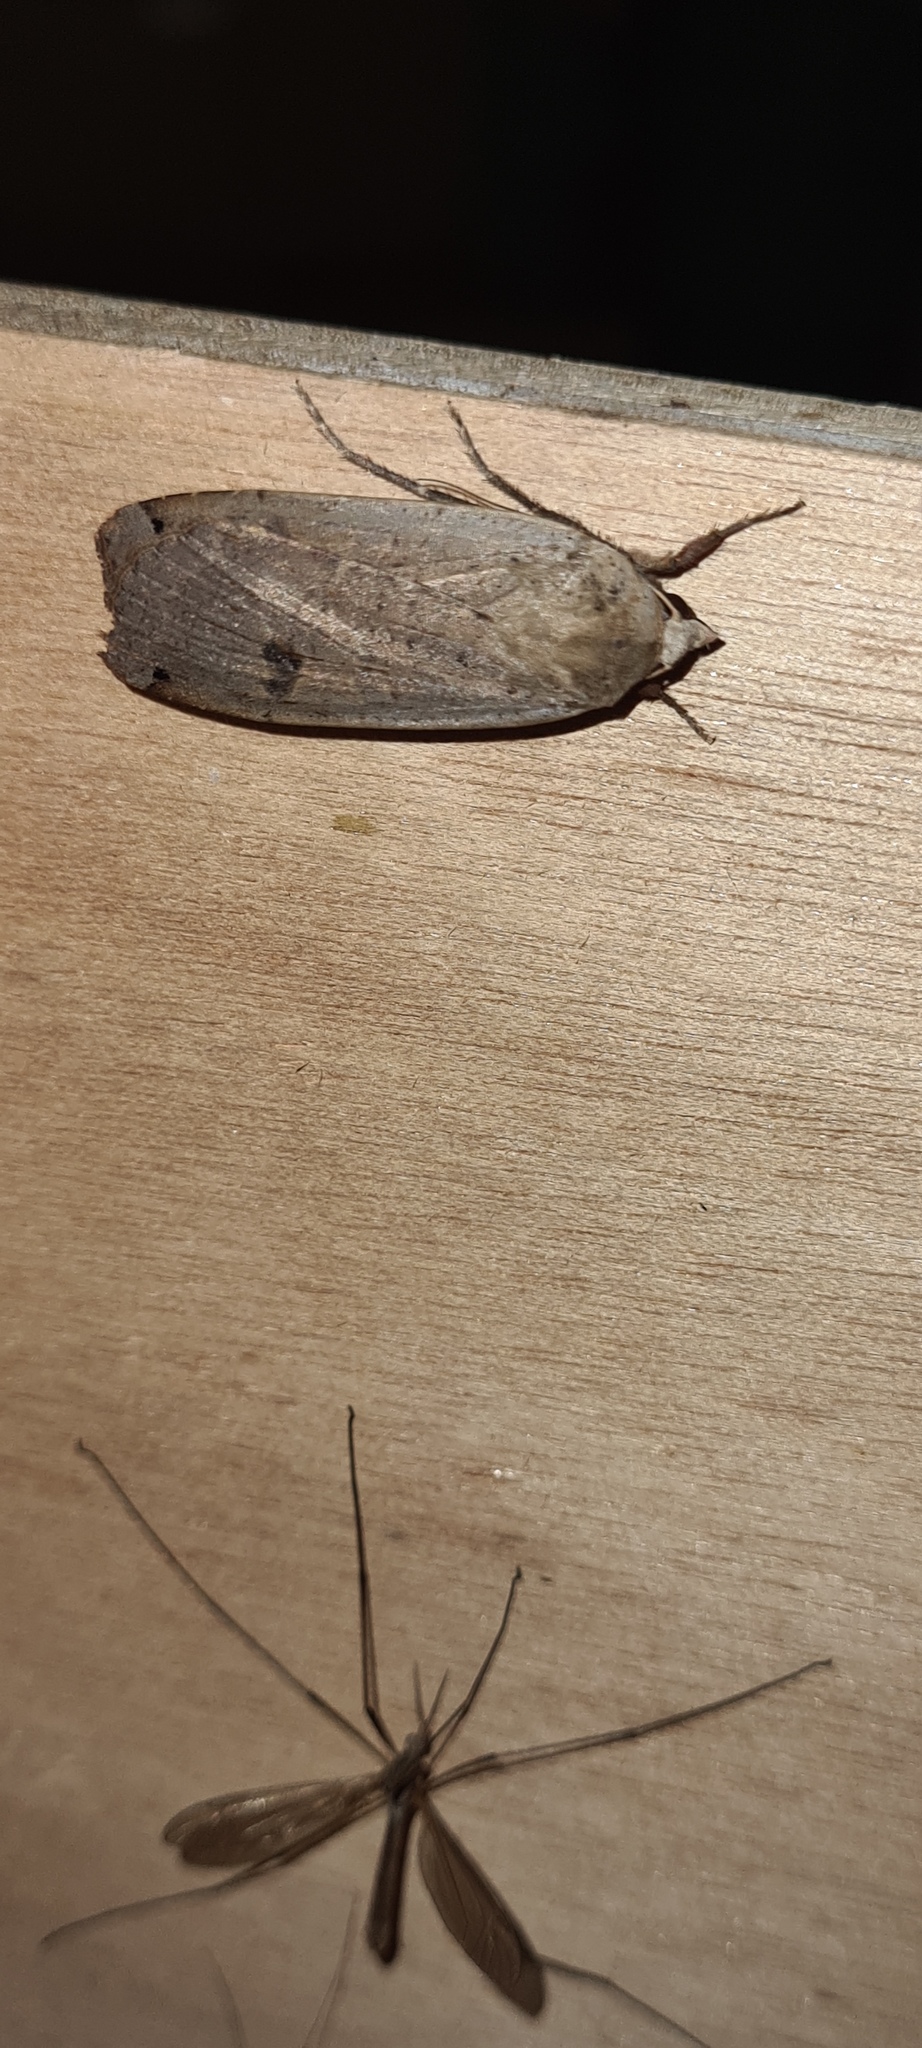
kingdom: Animalia
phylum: Arthropoda
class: Insecta
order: Lepidoptera
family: Noctuidae
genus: Noctua
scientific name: Noctua pronuba
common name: Large yellow underwing
